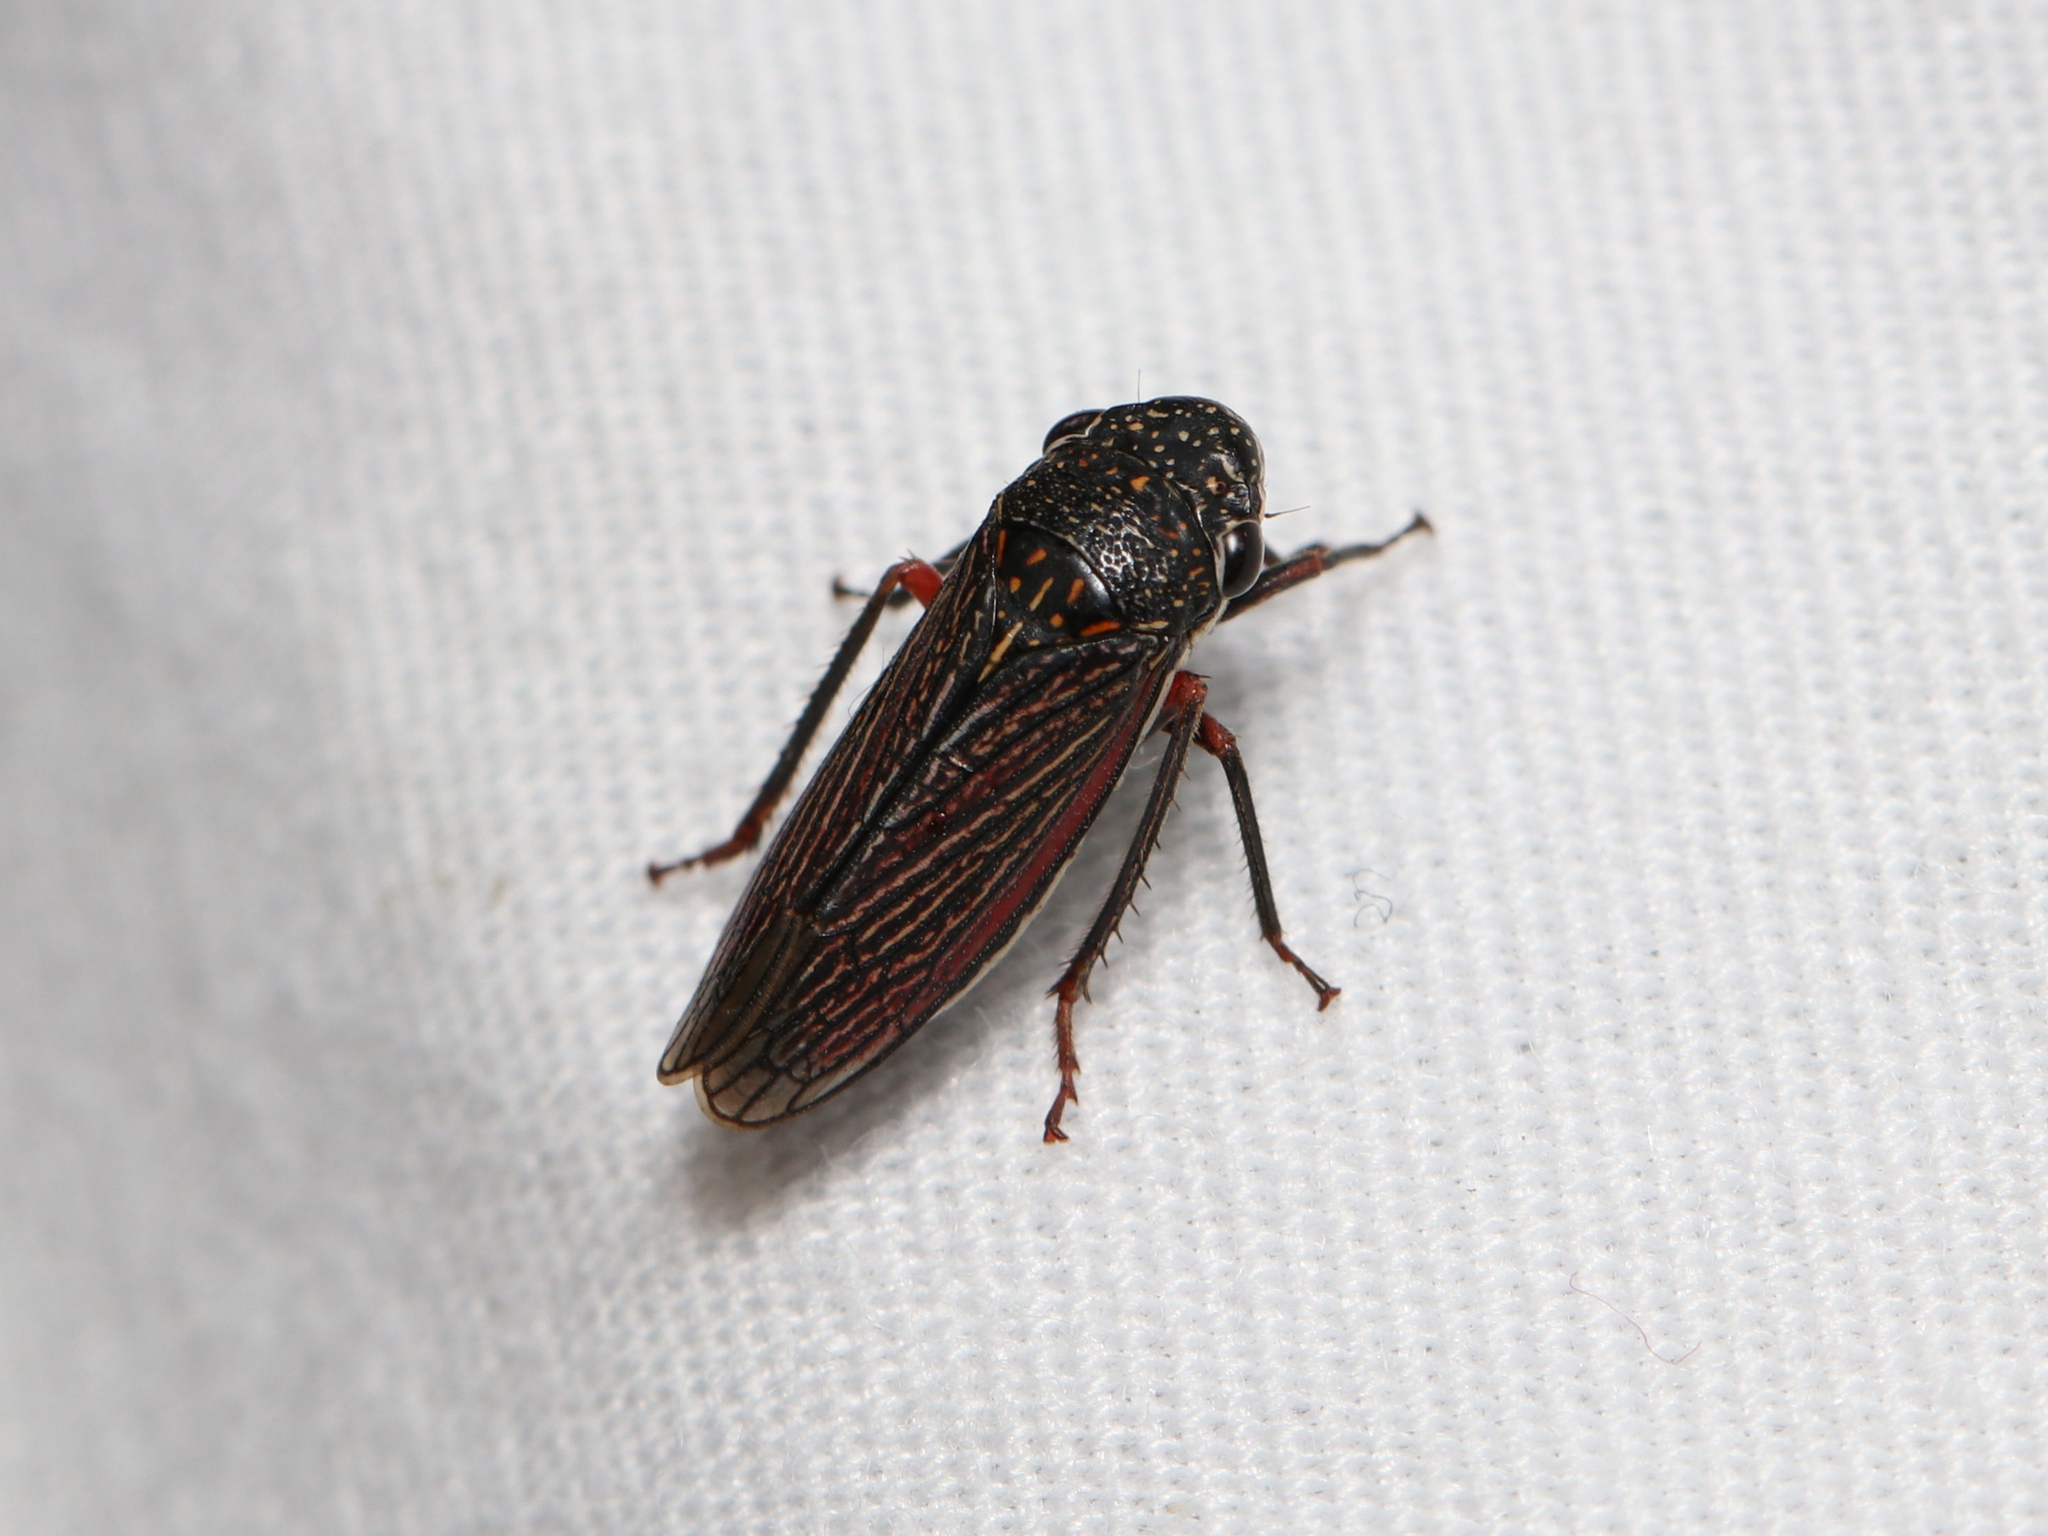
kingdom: Animalia
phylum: Arthropoda
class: Insecta
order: Hemiptera
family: Cicadellidae
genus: Cuerna
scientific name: Cuerna costalis
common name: Lateral-lined sharpshooter
